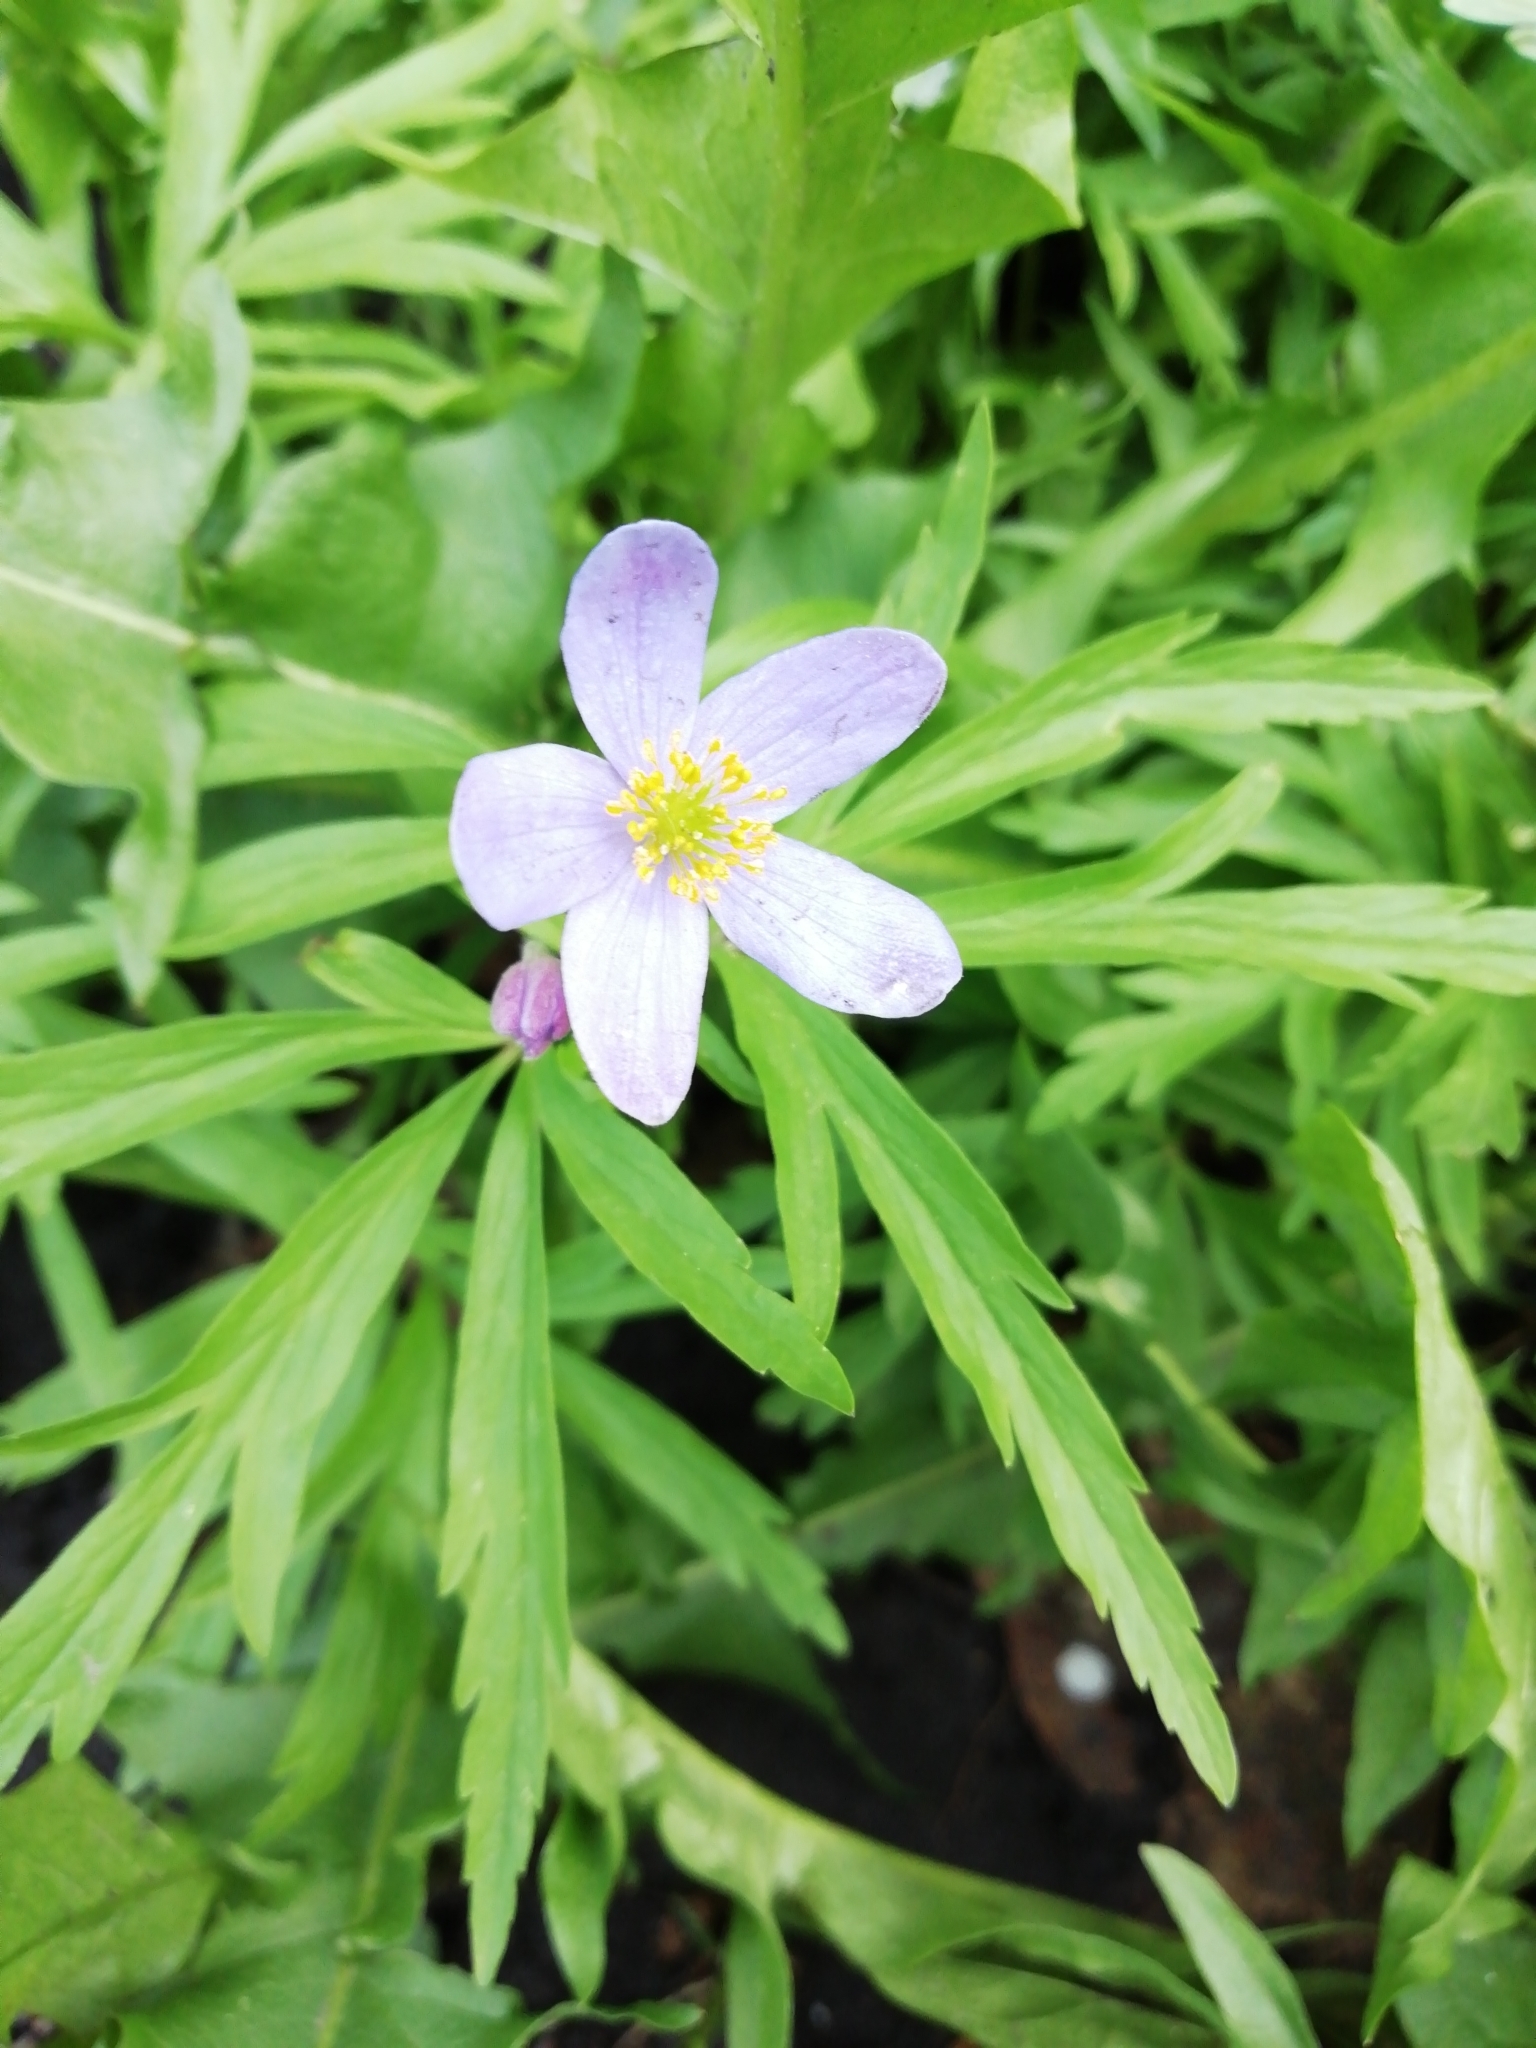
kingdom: Plantae
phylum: Tracheophyta
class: Magnoliopsida
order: Ranunculales
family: Ranunculaceae
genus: Anemone
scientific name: Anemone caerulea
